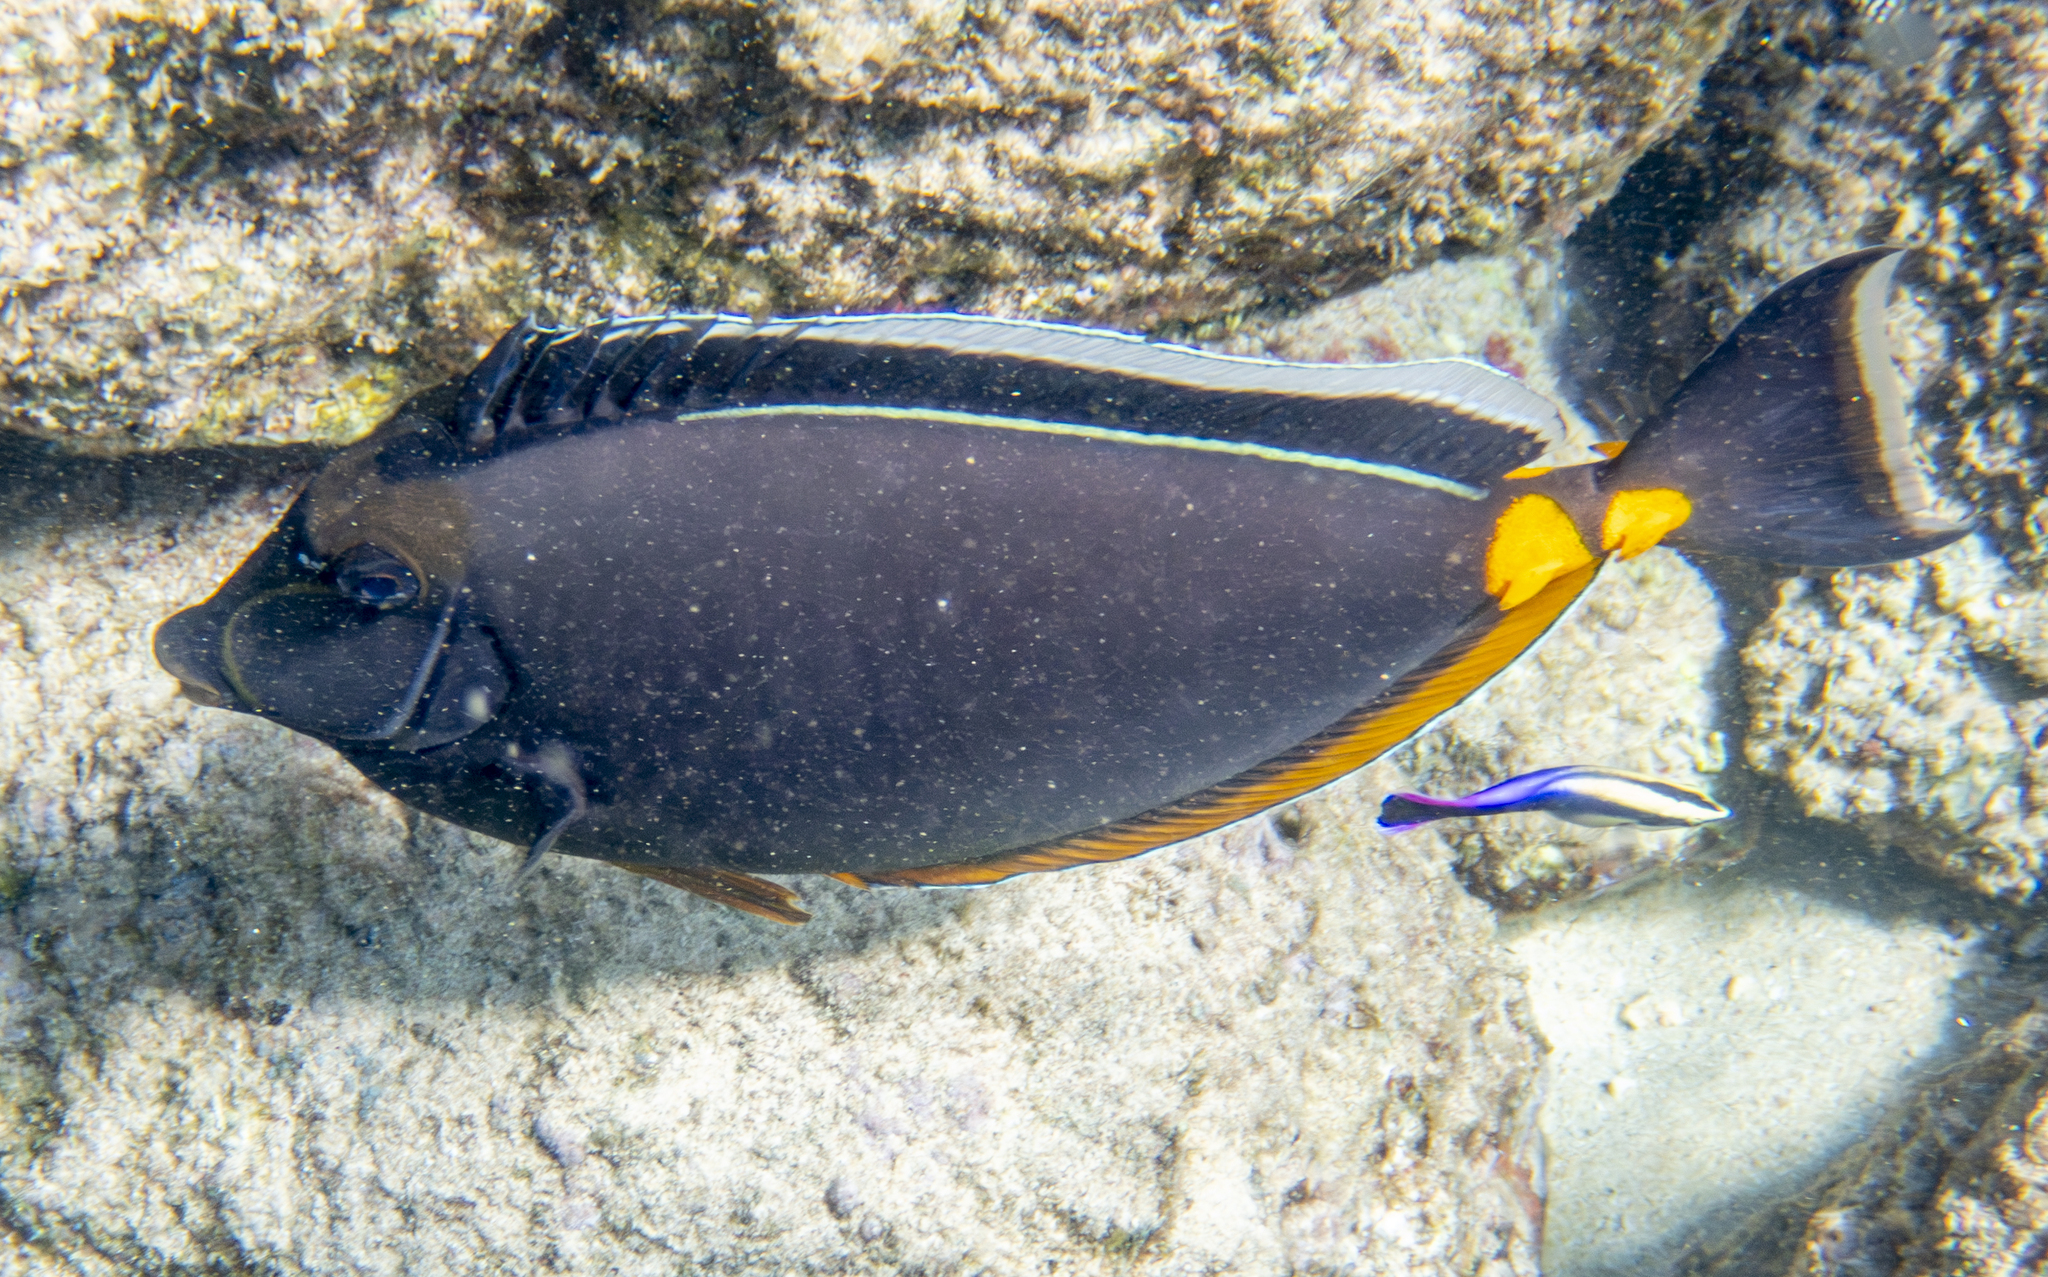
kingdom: Animalia
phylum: Chordata
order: Perciformes
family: Acanthuridae
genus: Naso
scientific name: Naso lituratus
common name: Orangespine unicornfish
